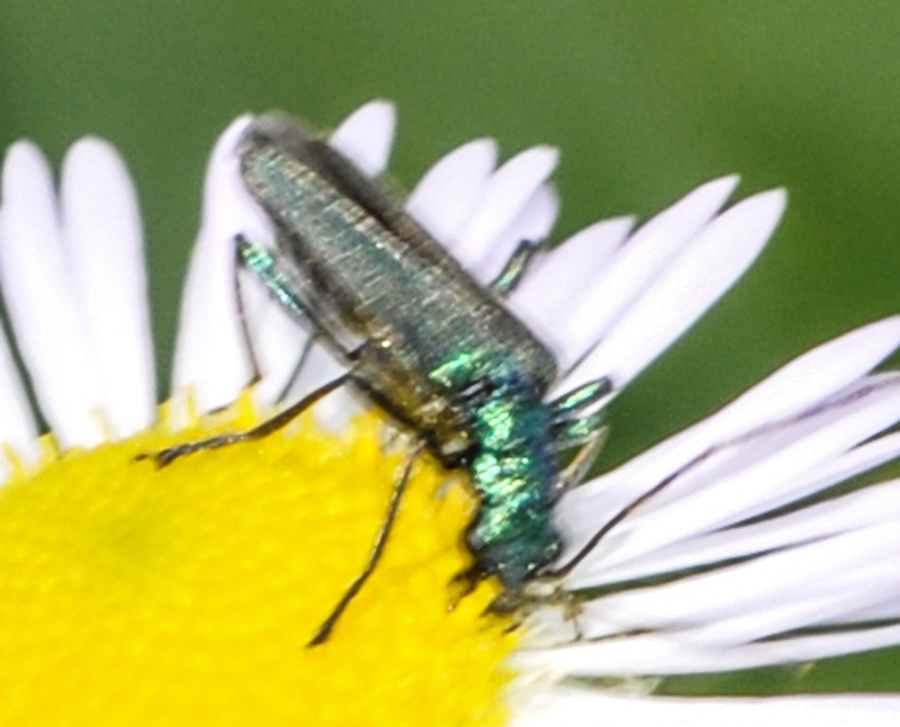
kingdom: Animalia
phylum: Arthropoda
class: Insecta
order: Coleoptera
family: Oedemeridae
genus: Oedemera
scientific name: Oedemera nobilis
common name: Swollen-thighed beetle
